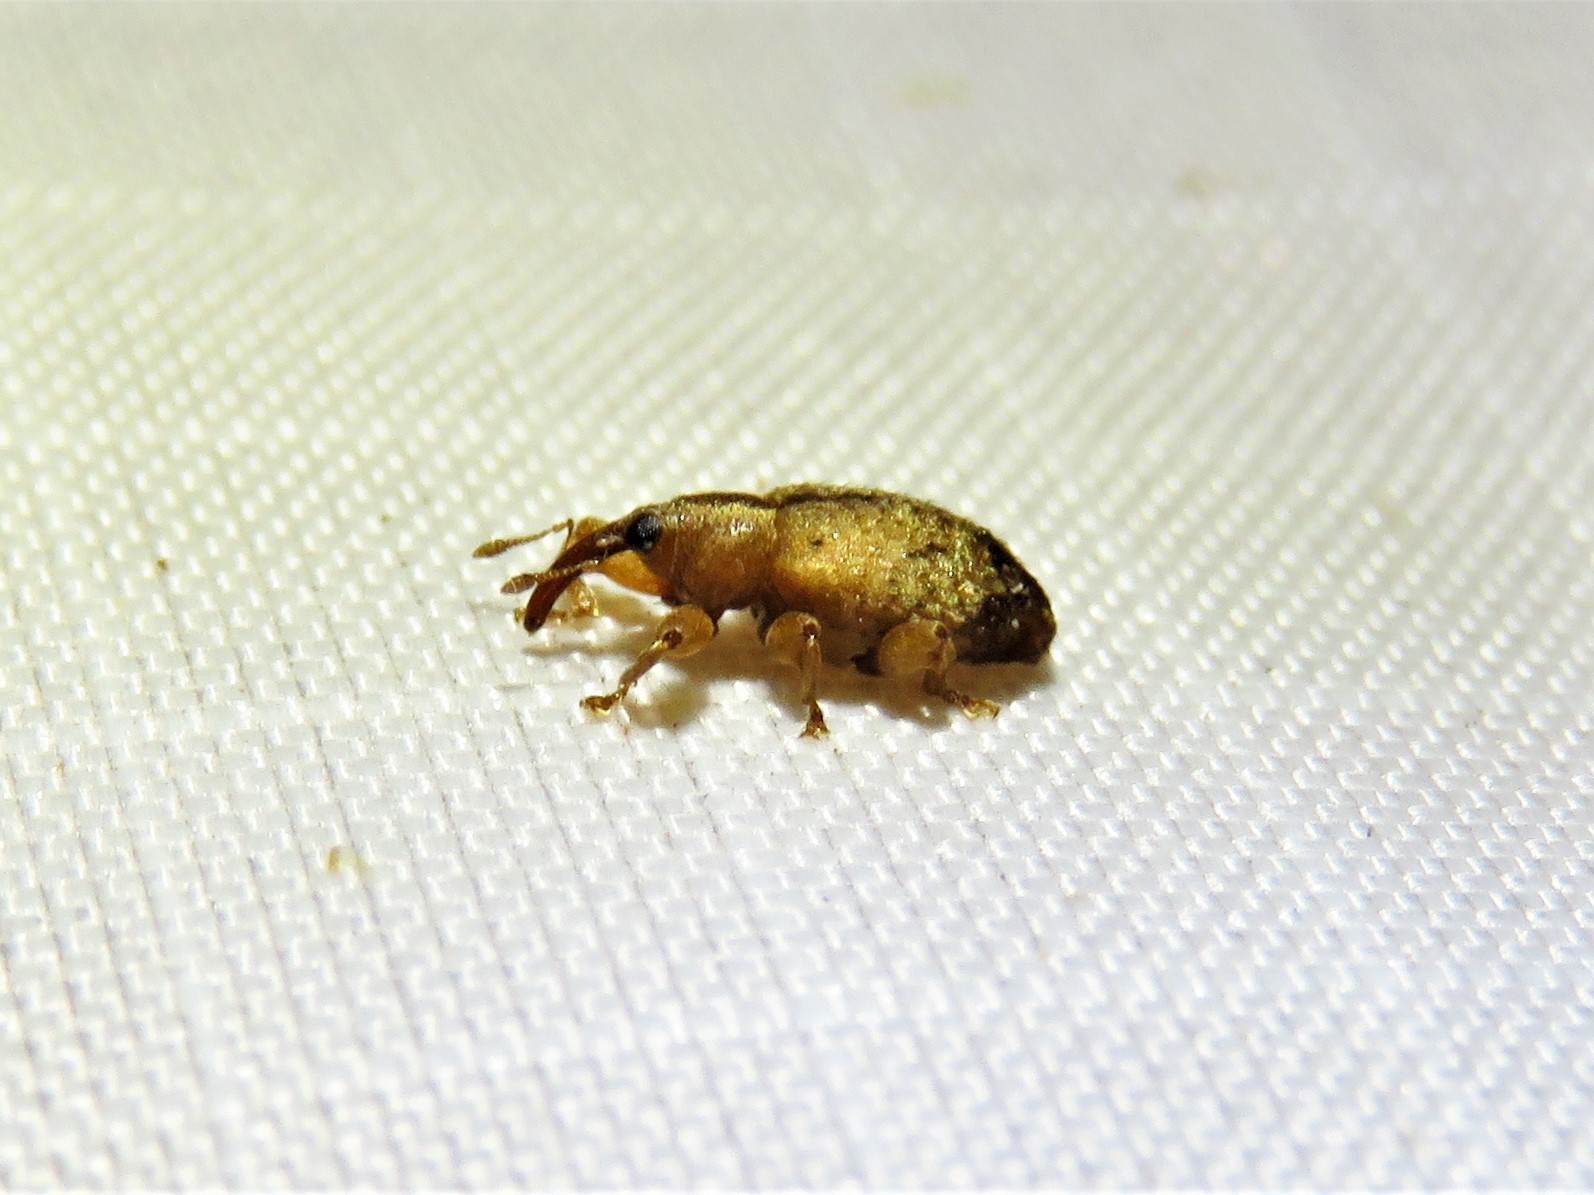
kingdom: Animalia
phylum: Arthropoda
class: Insecta
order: Coleoptera
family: Curculionidae
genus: Ochyromera
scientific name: Ochyromera ligustri
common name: Weevil
